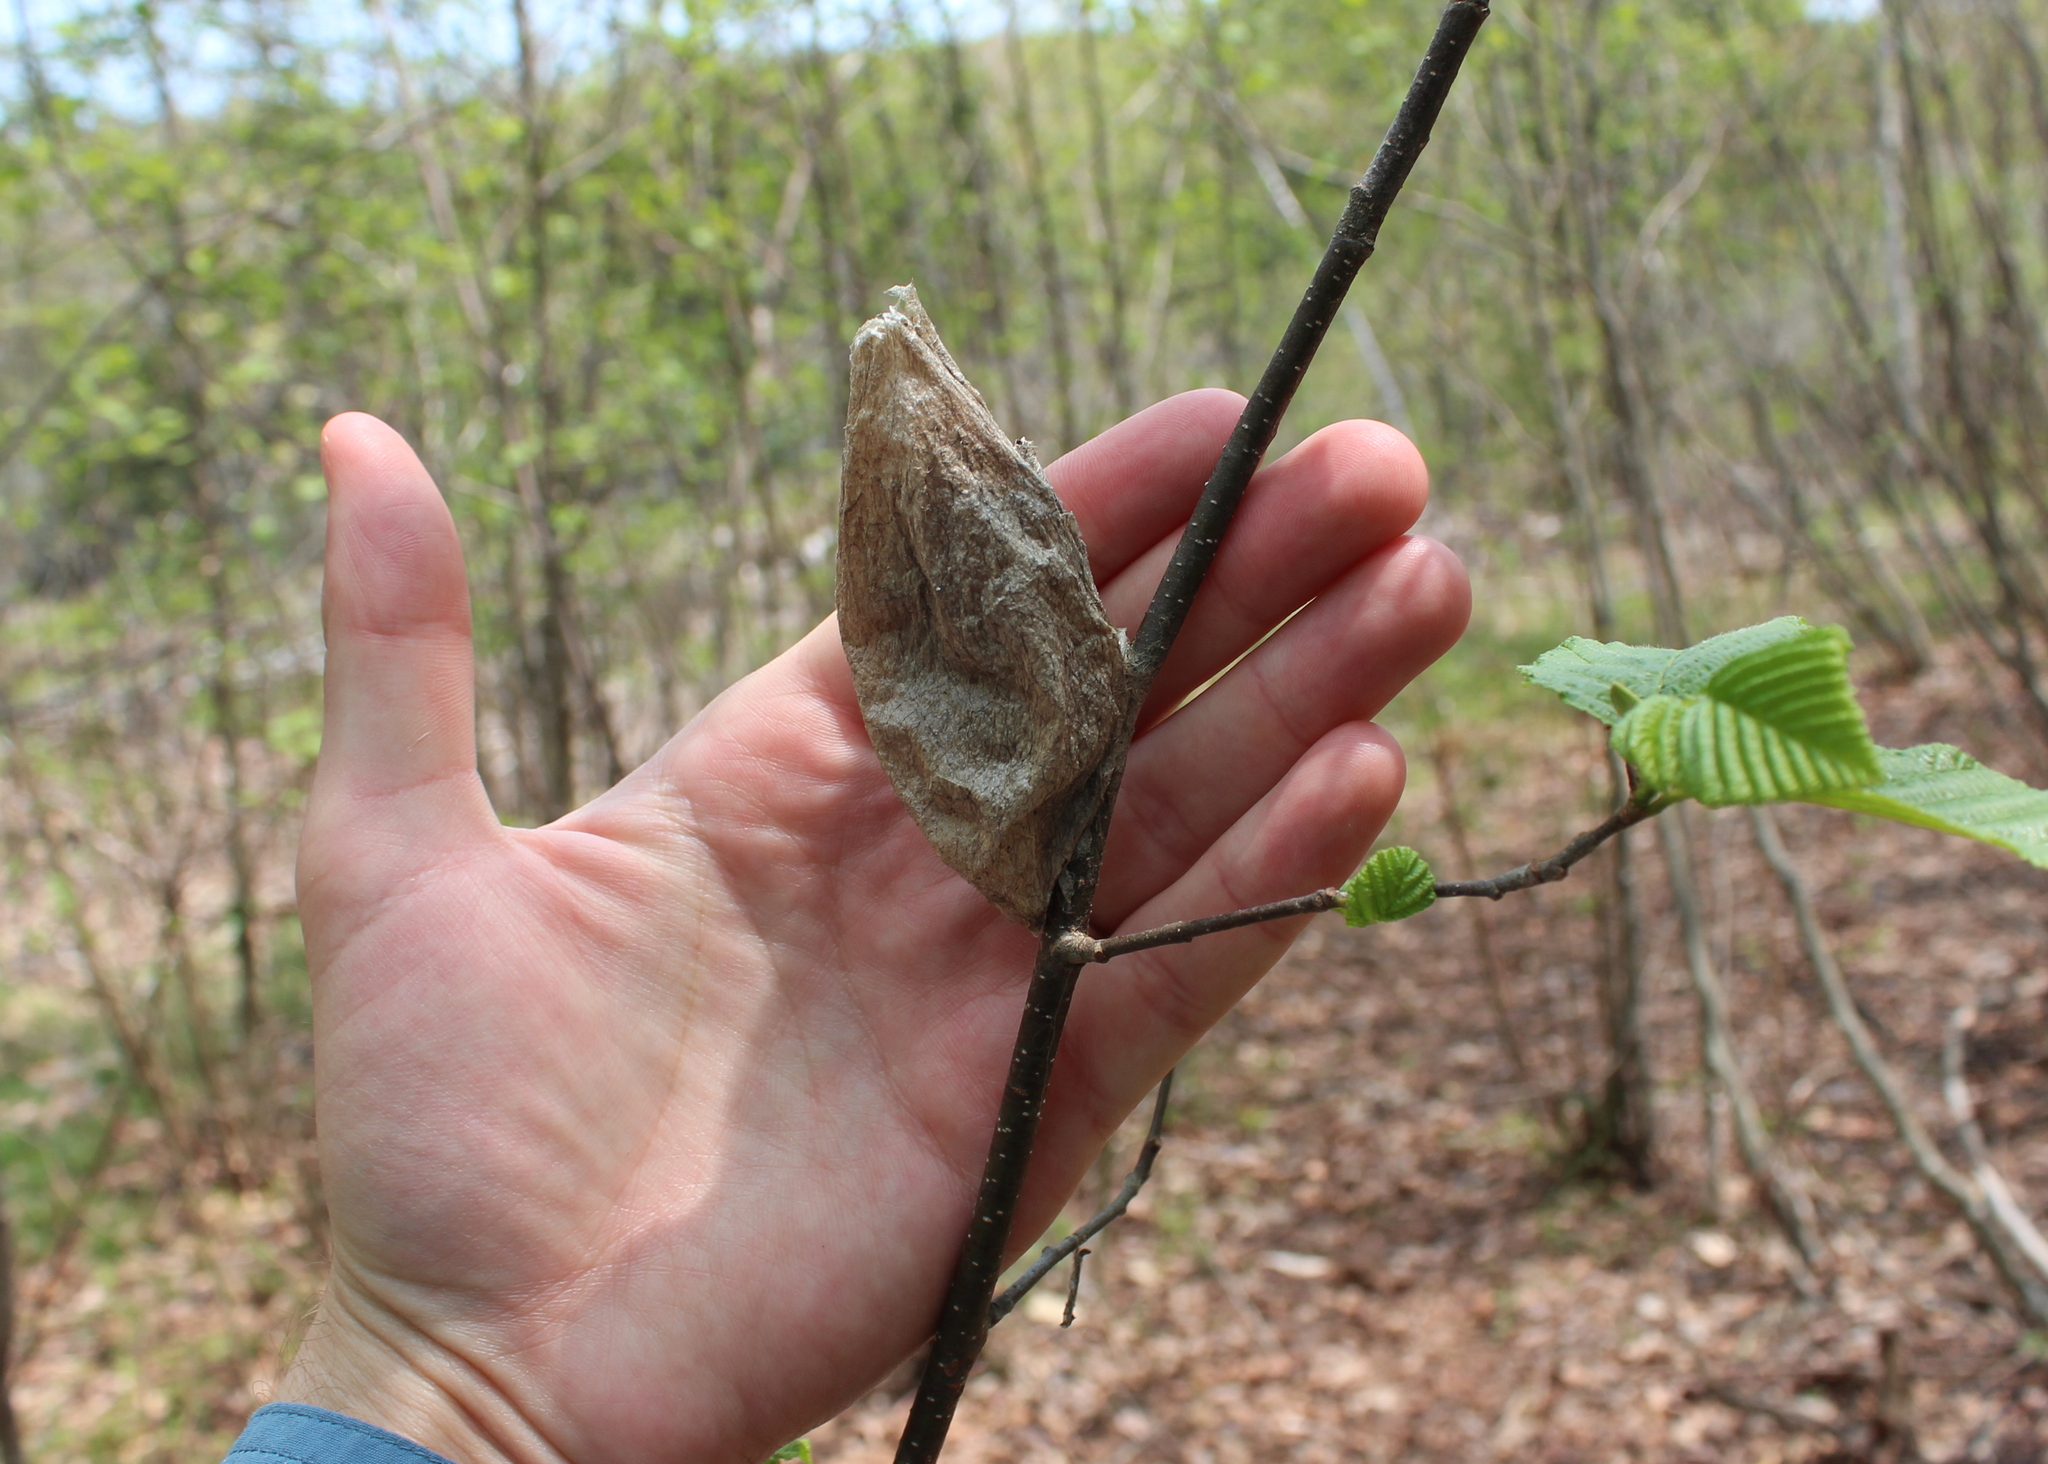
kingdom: Animalia
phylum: Arthropoda
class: Insecta
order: Lepidoptera
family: Saturniidae
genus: Hyalophora
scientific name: Hyalophora cecropia
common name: Cecropia silkmoth
